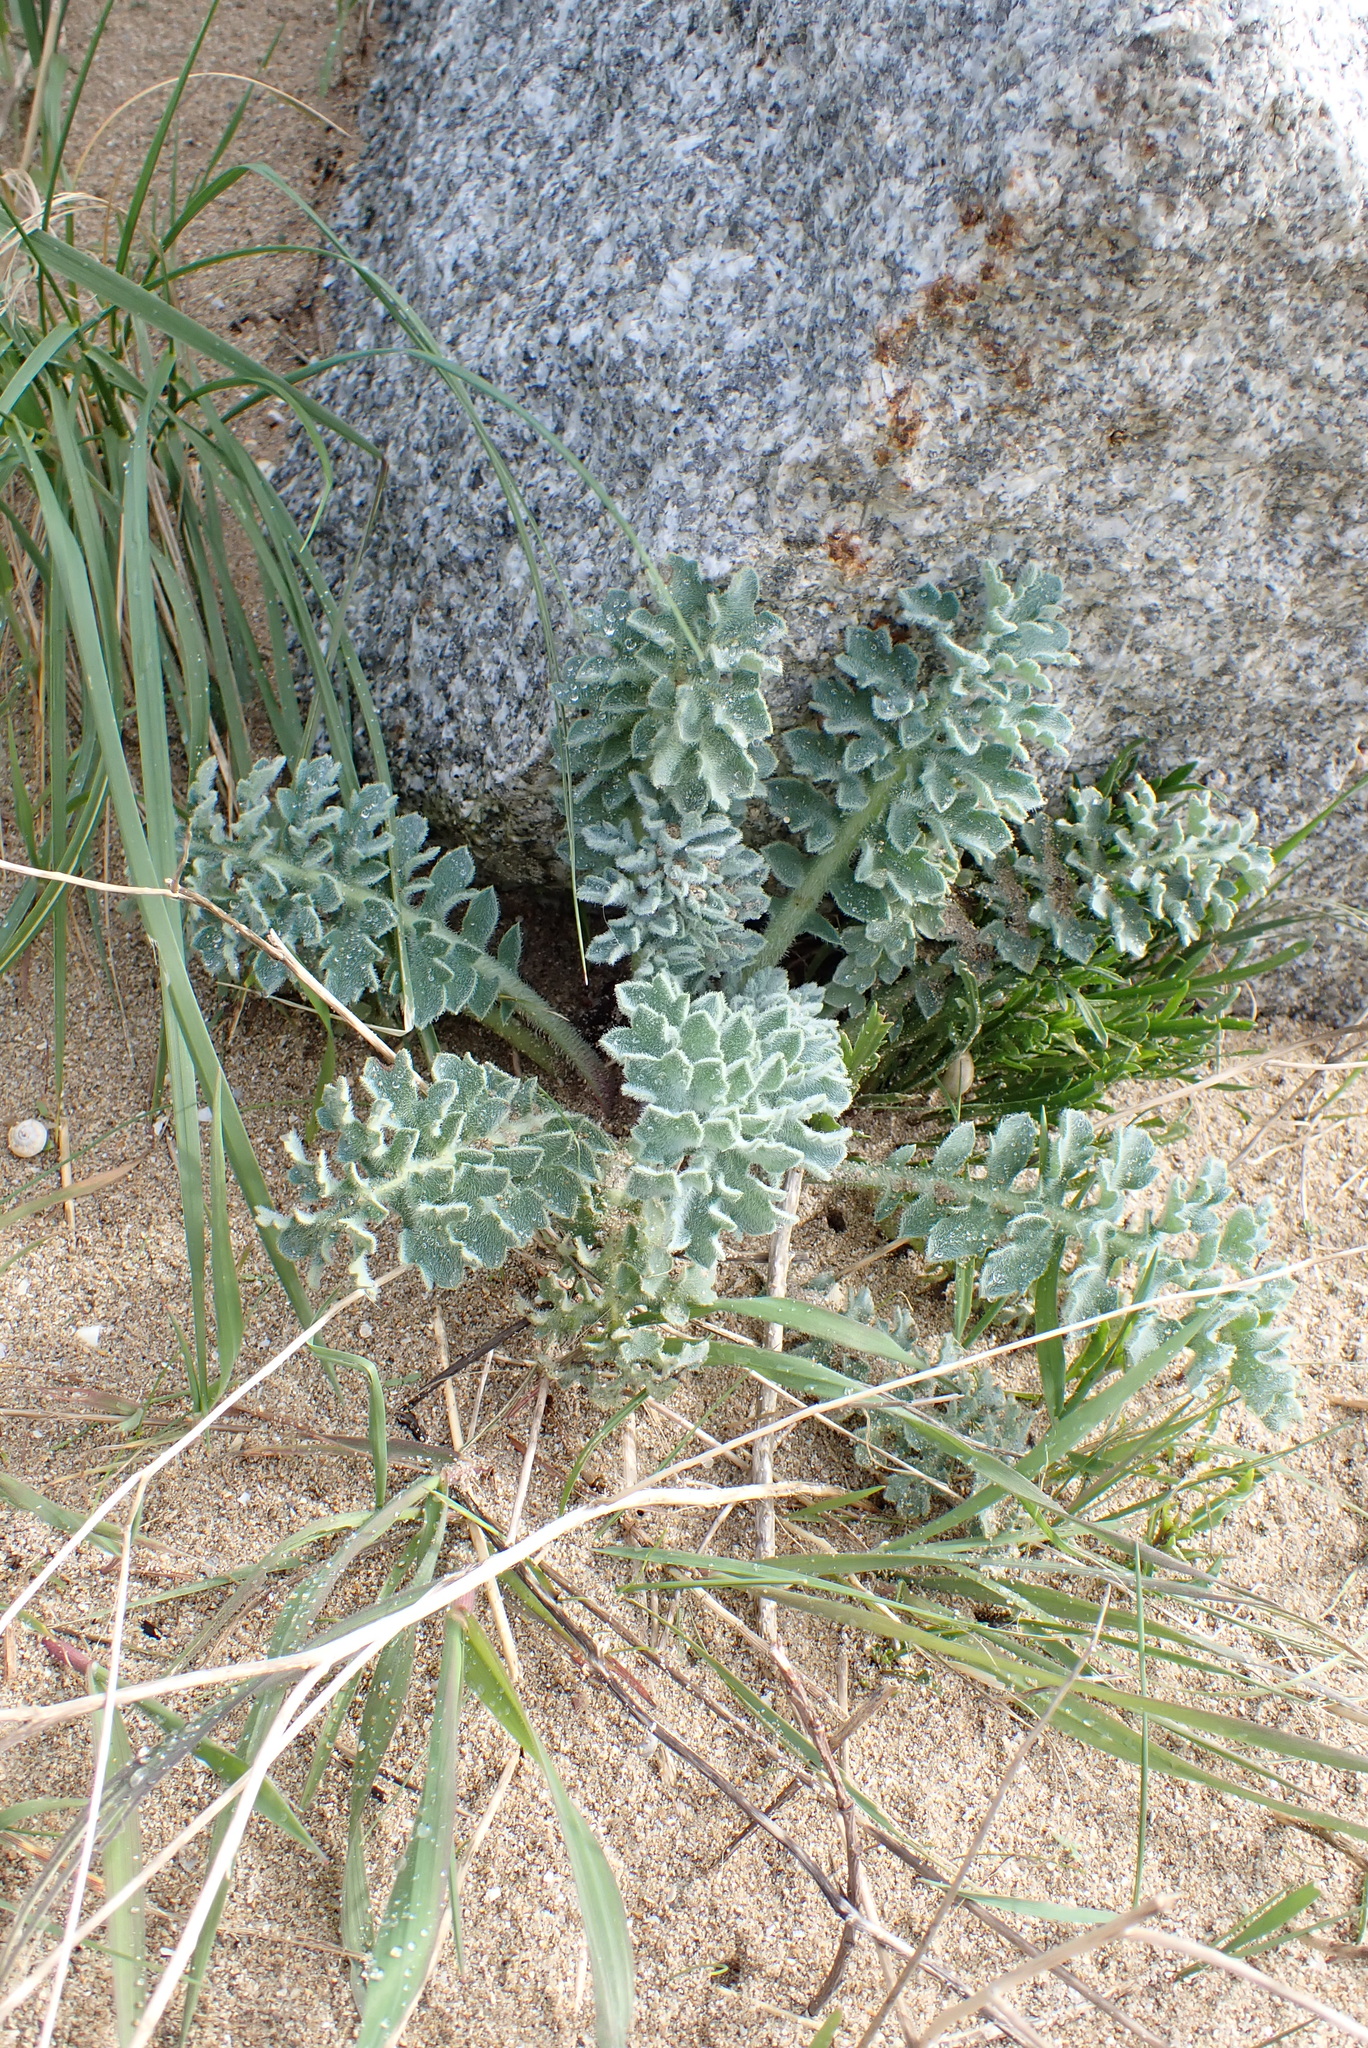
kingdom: Plantae
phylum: Tracheophyta
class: Magnoliopsida
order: Malpighiales
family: Euphorbiaceae
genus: Euphorbia
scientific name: Euphorbia paralias
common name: Sea spurge
